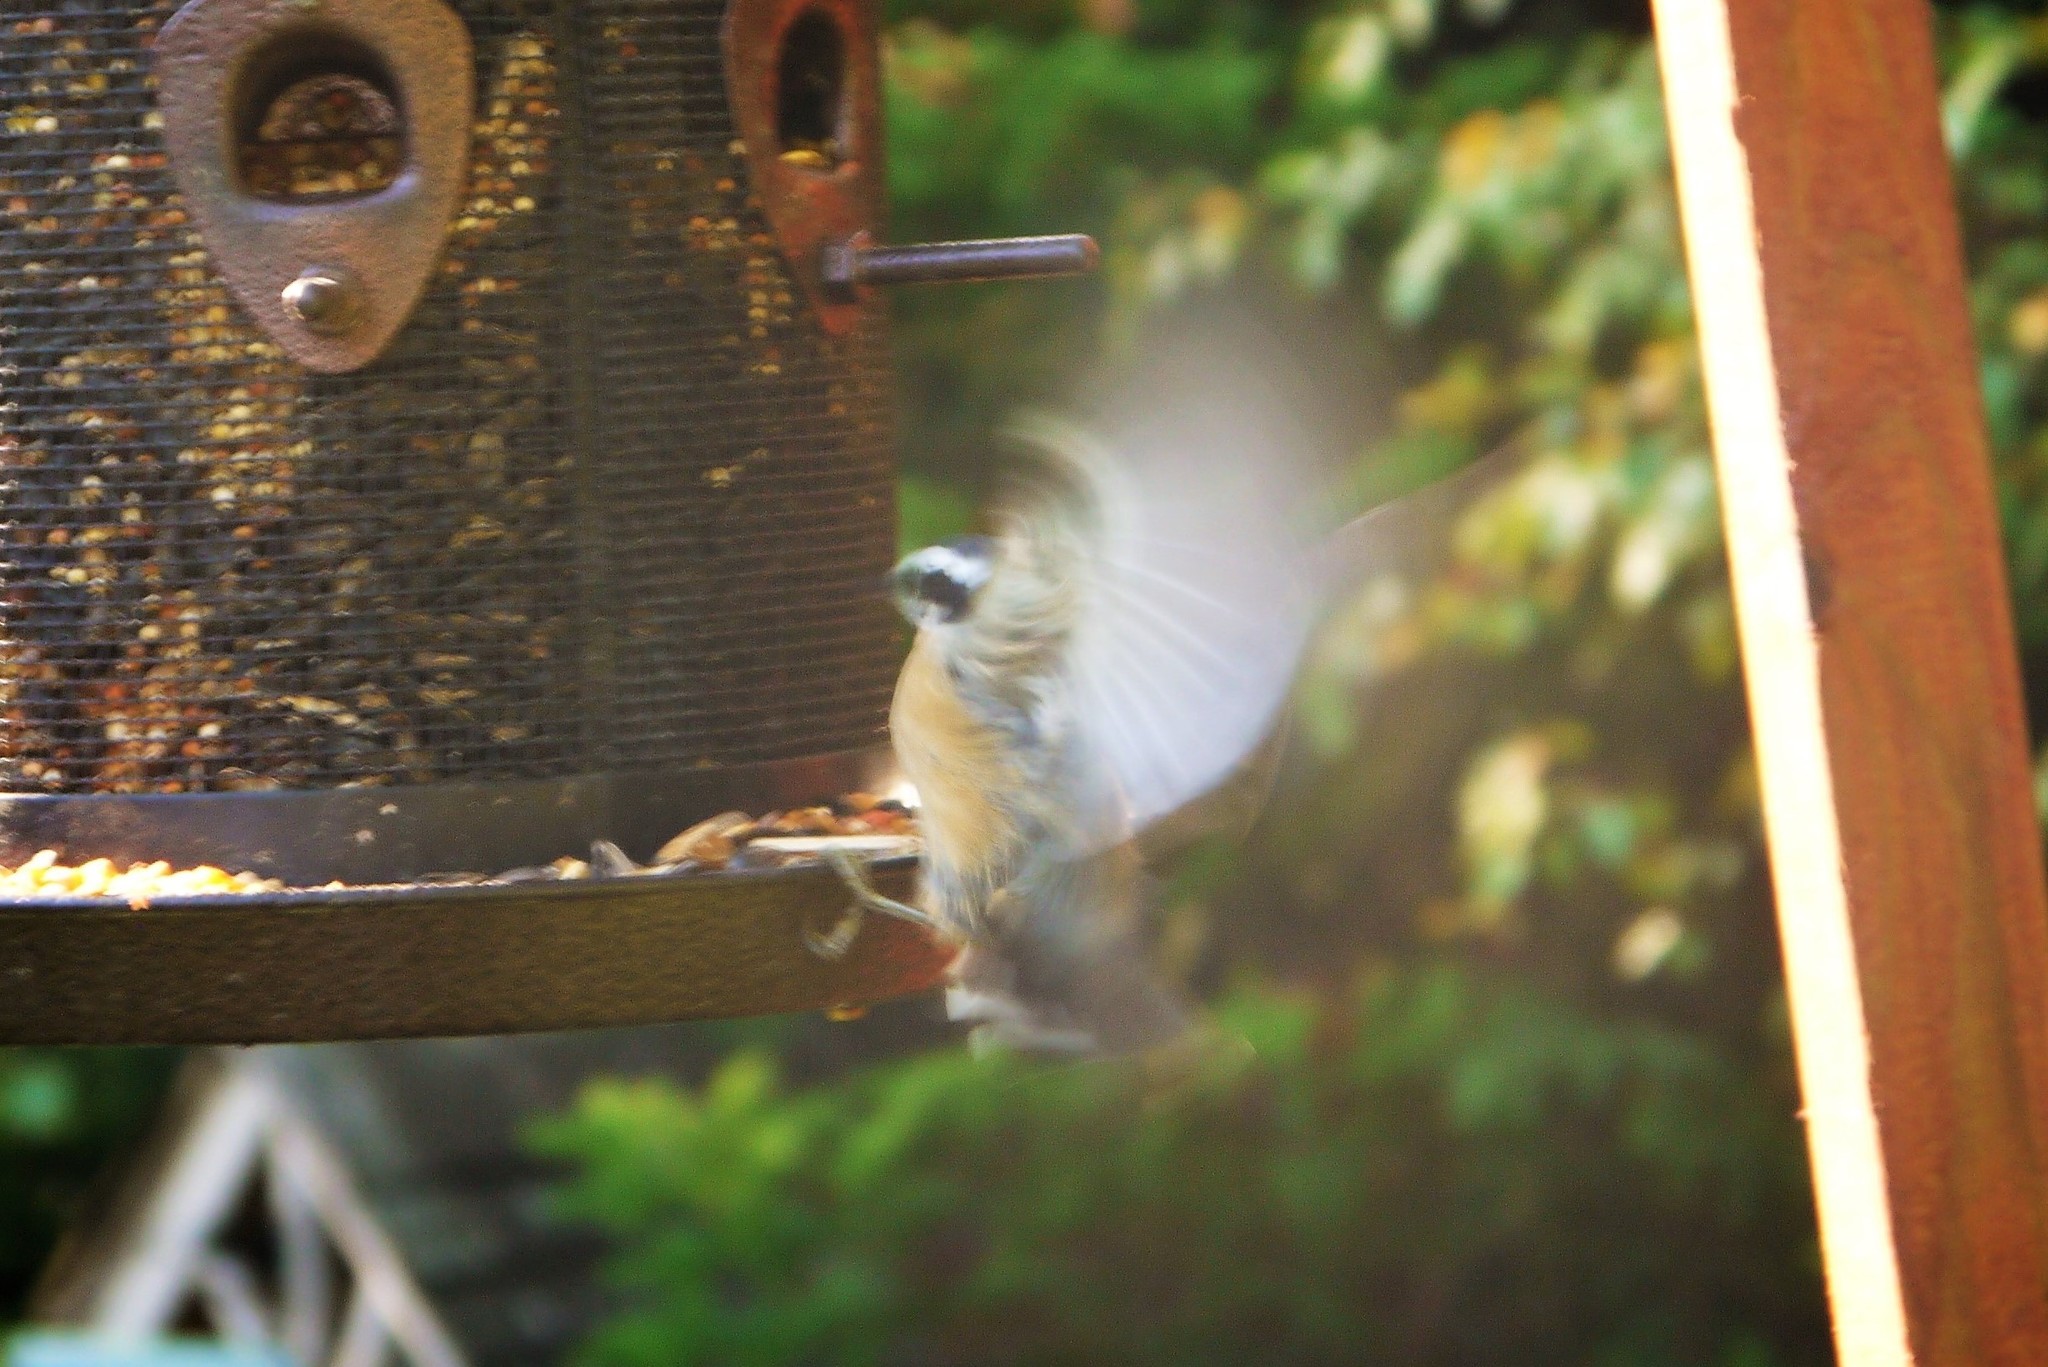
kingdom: Animalia
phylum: Chordata
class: Aves
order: Passeriformes
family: Sittidae
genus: Sitta
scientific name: Sitta canadensis
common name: Red-breasted nuthatch
